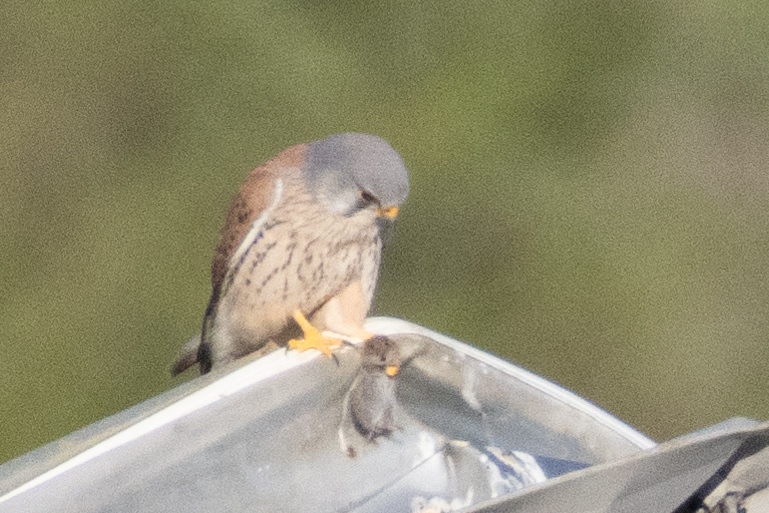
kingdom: Animalia
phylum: Chordata
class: Aves
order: Falconiformes
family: Falconidae
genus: Falco
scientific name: Falco tinnunculus
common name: Common kestrel
